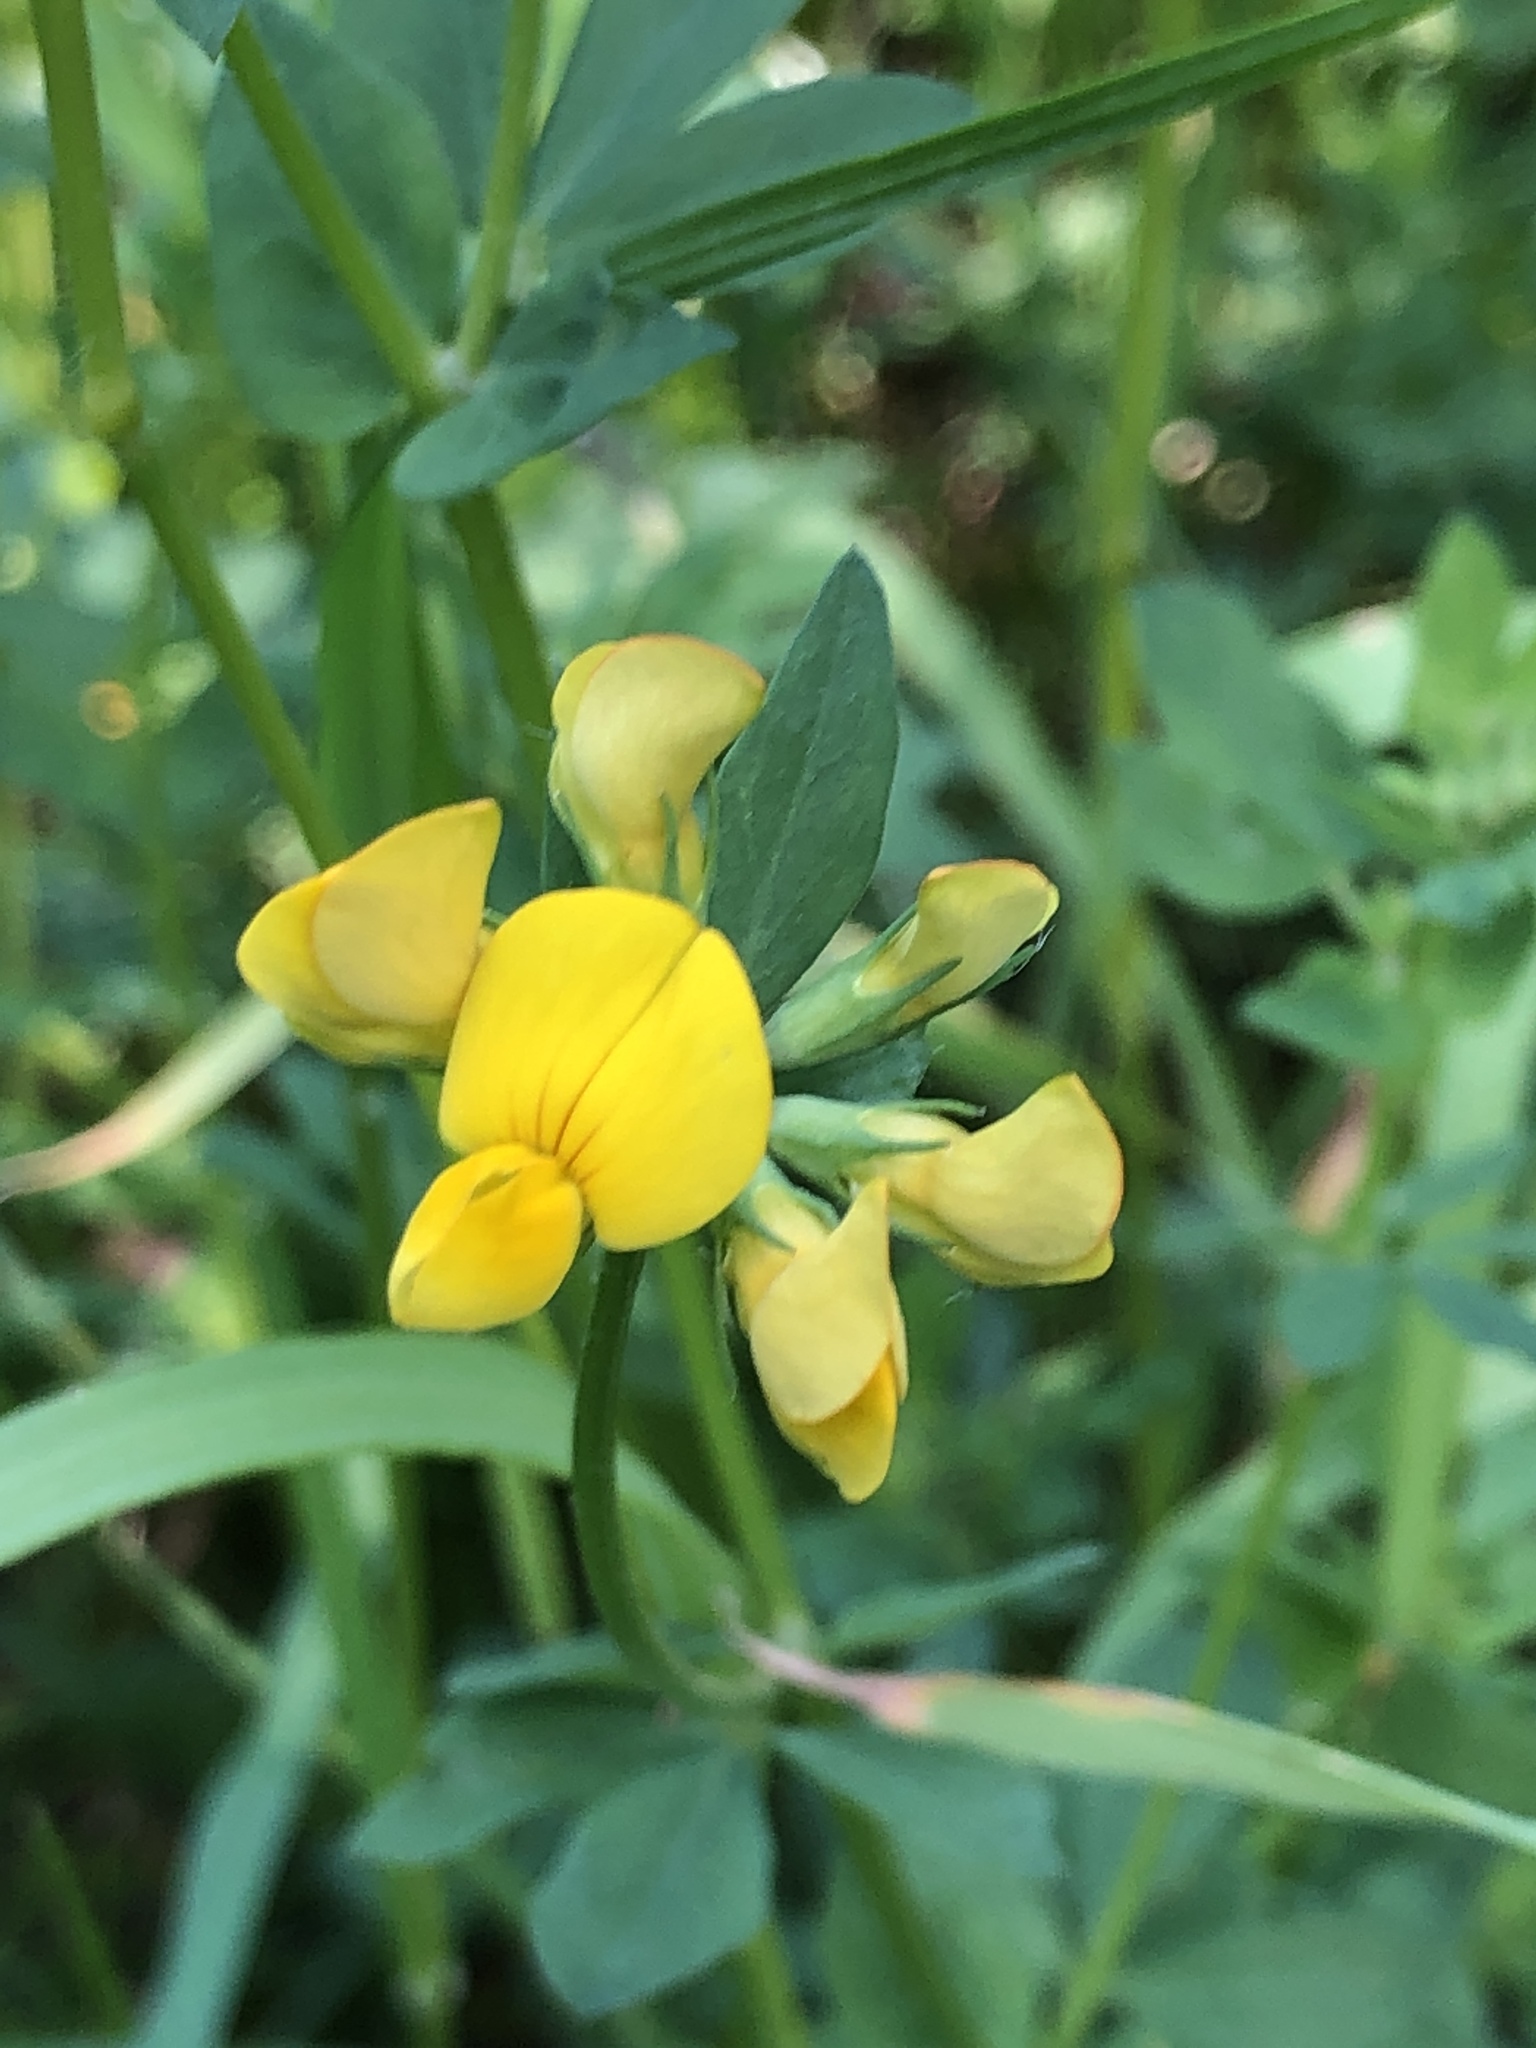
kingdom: Plantae
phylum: Tracheophyta
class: Magnoliopsida
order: Fabales
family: Fabaceae
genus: Lotus
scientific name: Lotus corniculatus
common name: Common bird's-foot-trefoil
